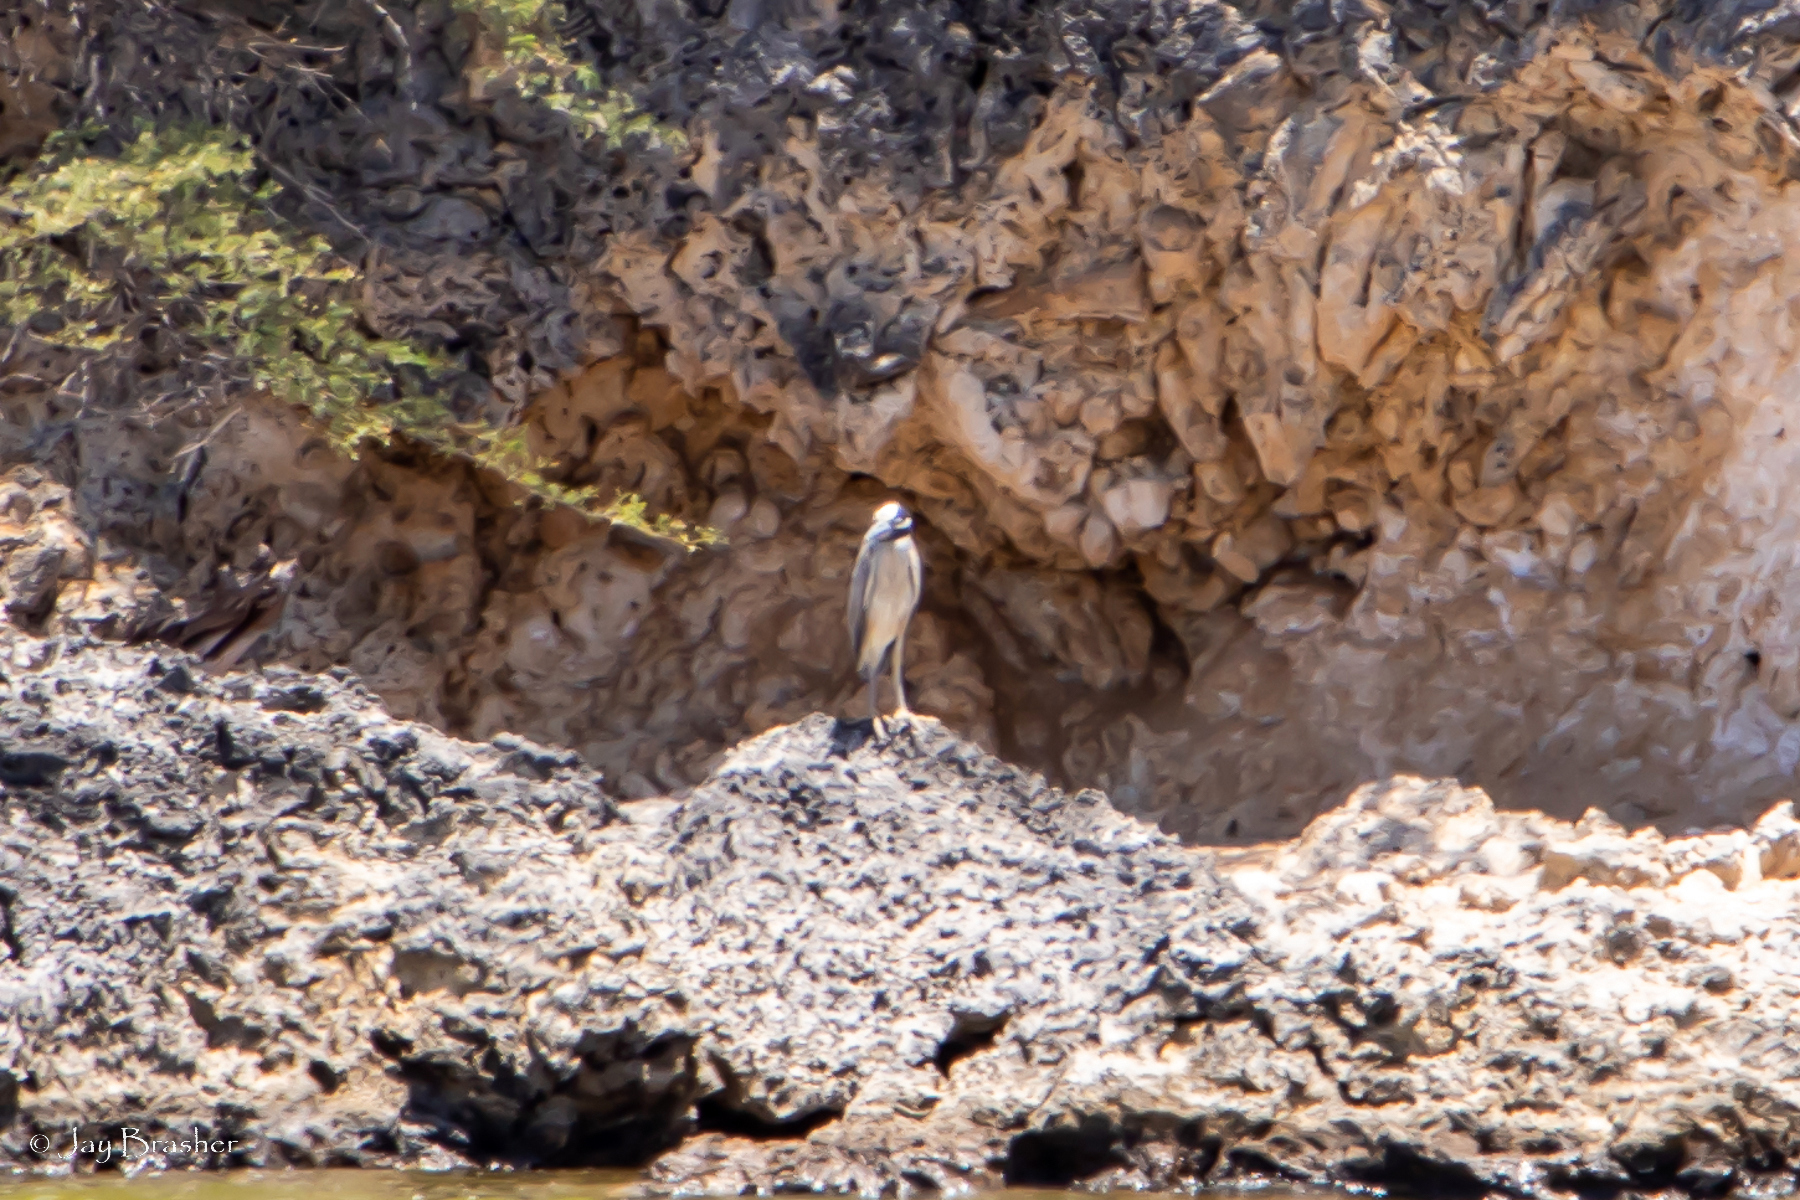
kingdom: Animalia
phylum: Chordata
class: Aves
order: Pelecaniformes
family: Ardeidae
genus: Nyctanassa
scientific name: Nyctanassa violacea
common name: Yellow-crowned night heron
